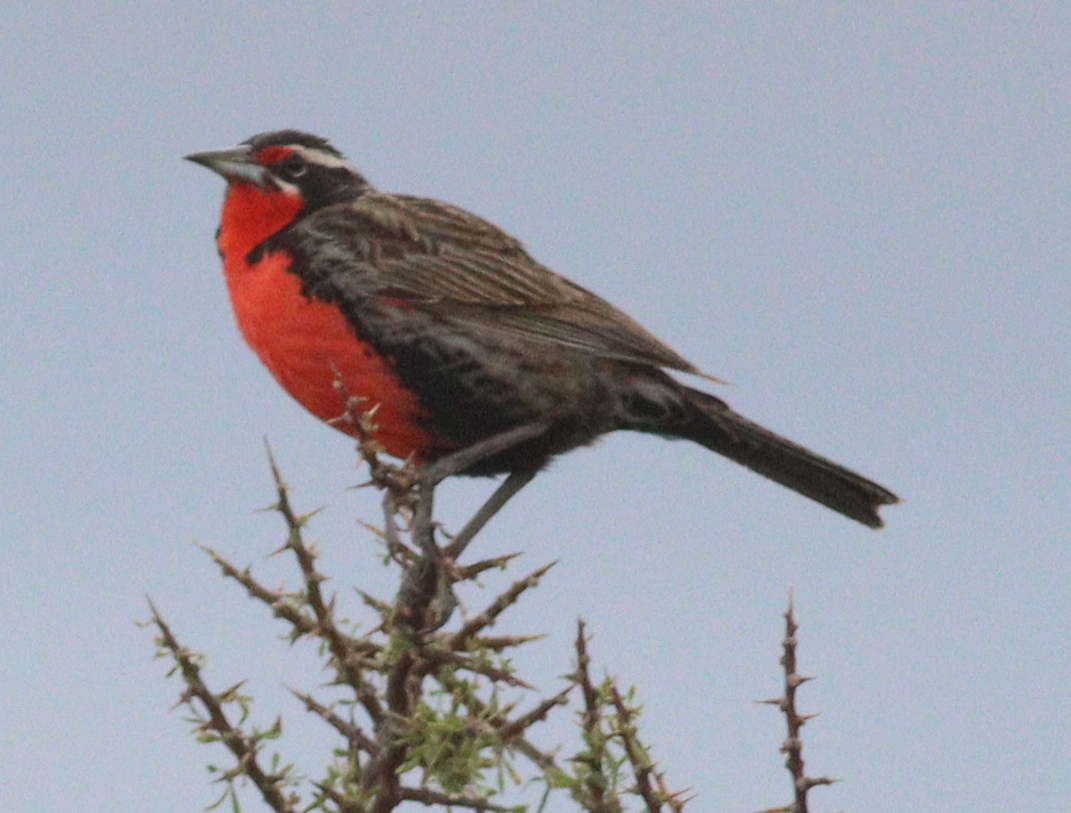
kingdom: Animalia
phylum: Chordata
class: Aves
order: Passeriformes
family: Icteridae
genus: Sturnella
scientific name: Sturnella loyca
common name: Long-tailed meadowlark
